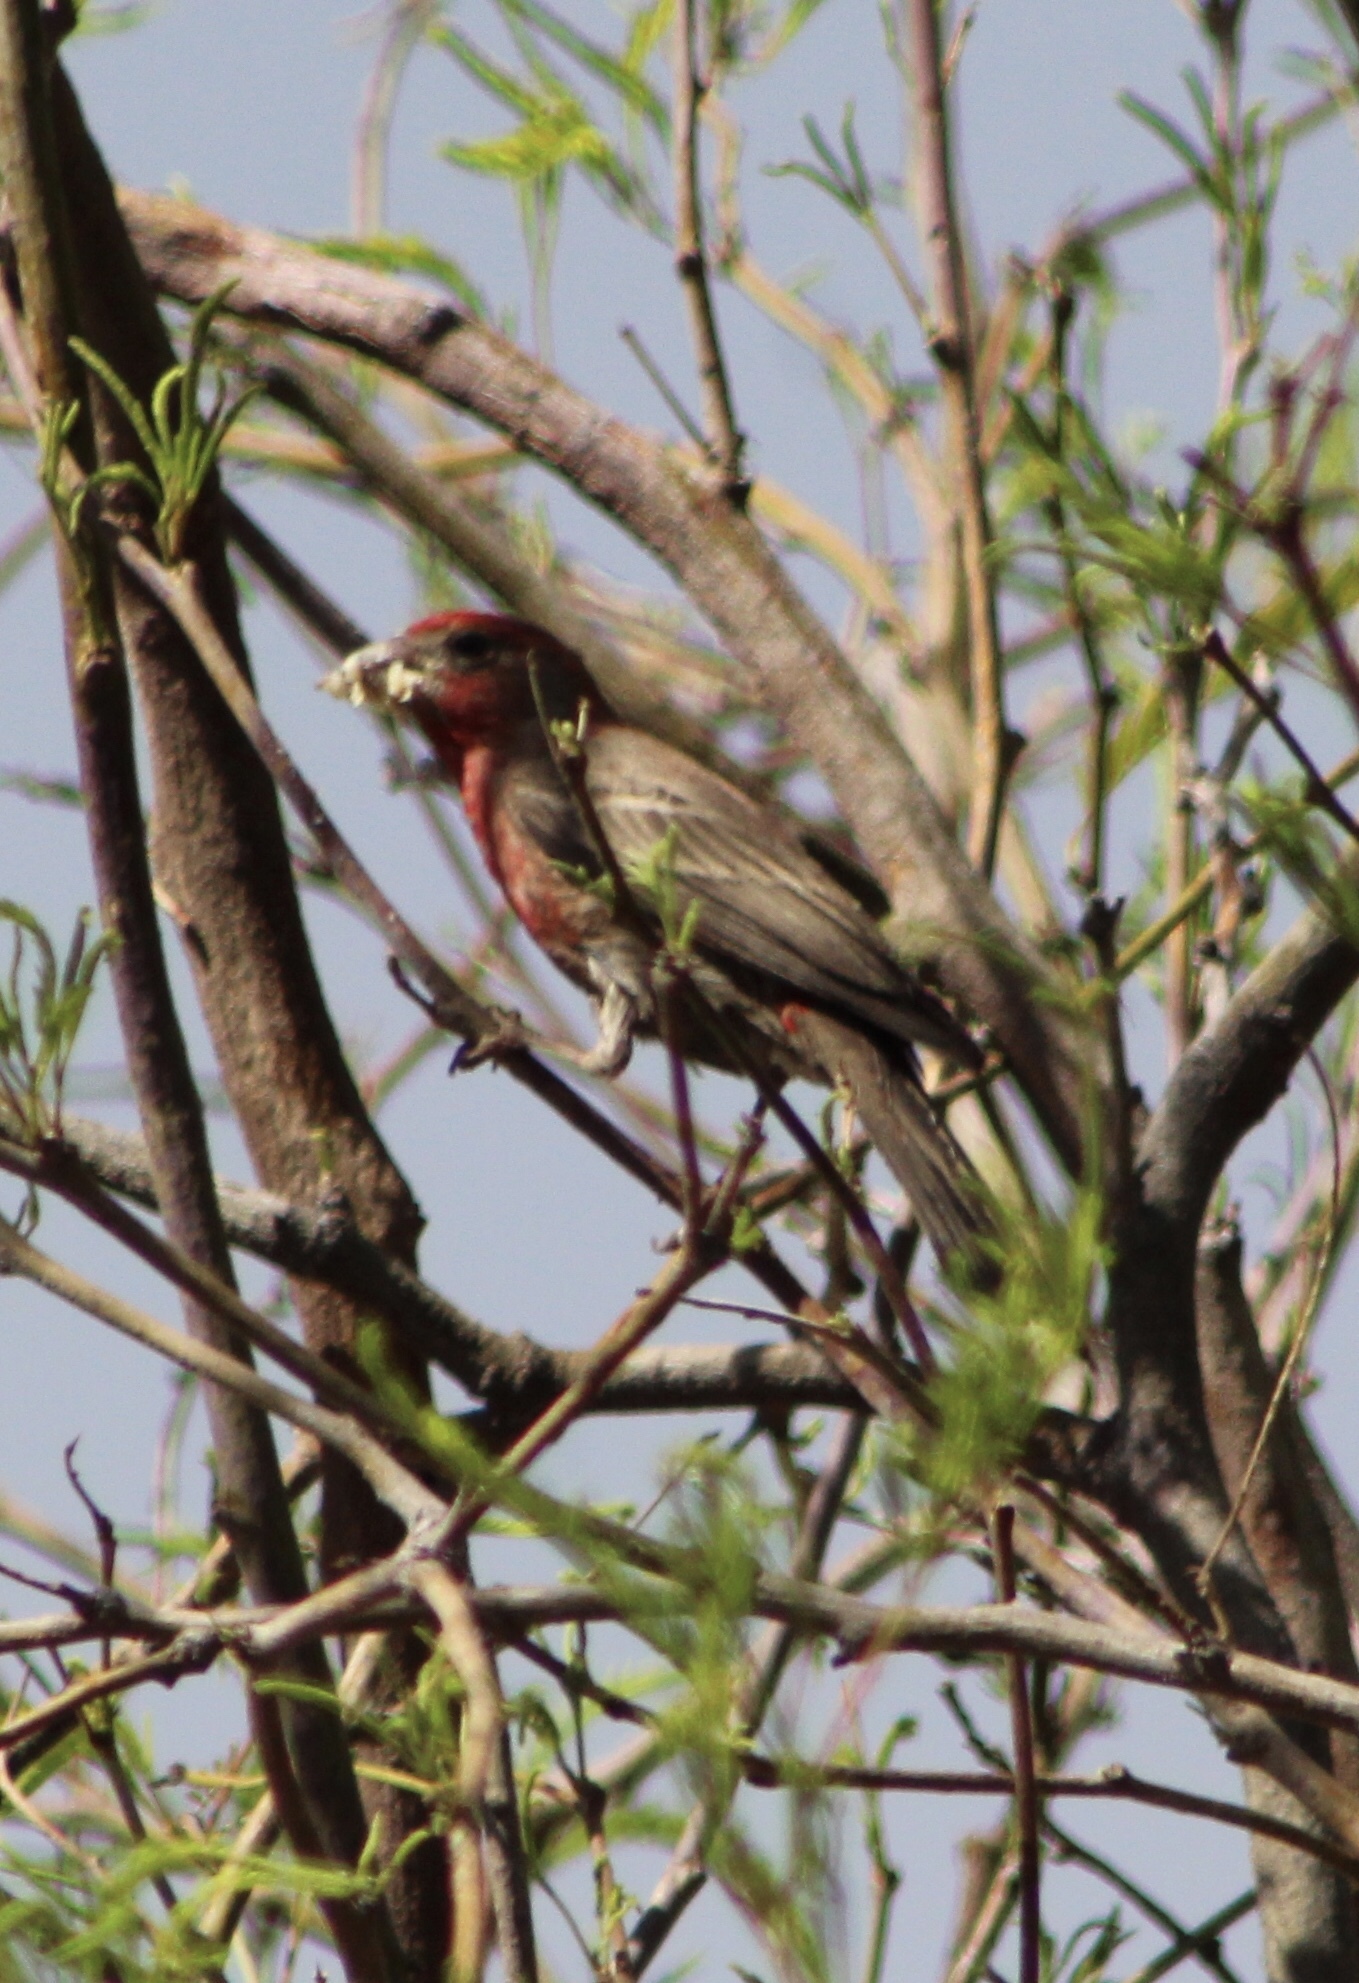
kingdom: Animalia
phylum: Chordata
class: Aves
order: Passeriformes
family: Fringillidae
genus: Haemorhous
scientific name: Haemorhous mexicanus
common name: House finch
